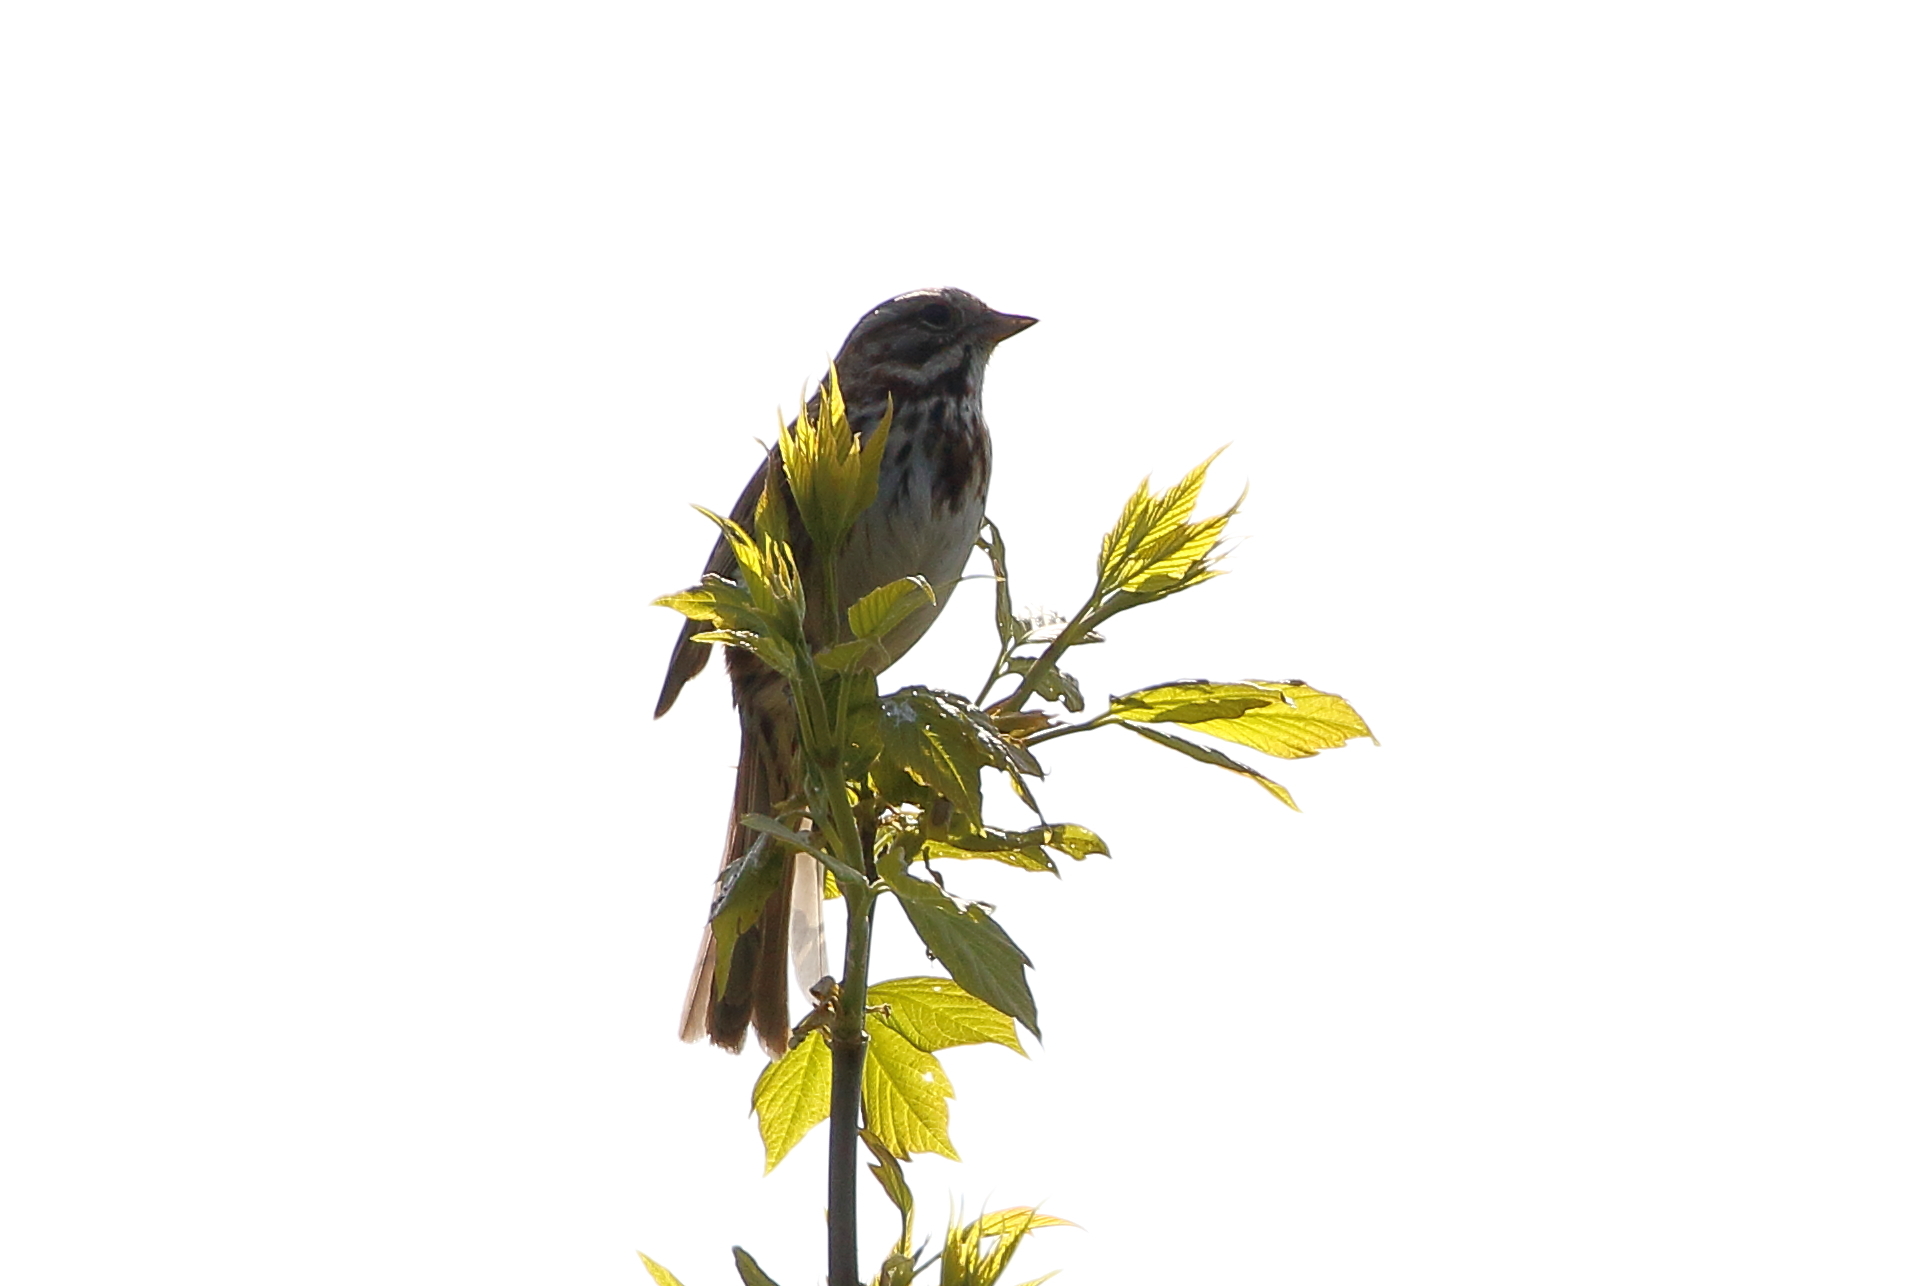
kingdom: Animalia
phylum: Chordata
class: Aves
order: Passeriformes
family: Passerellidae
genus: Melospiza
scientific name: Melospiza melodia
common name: Song sparrow
